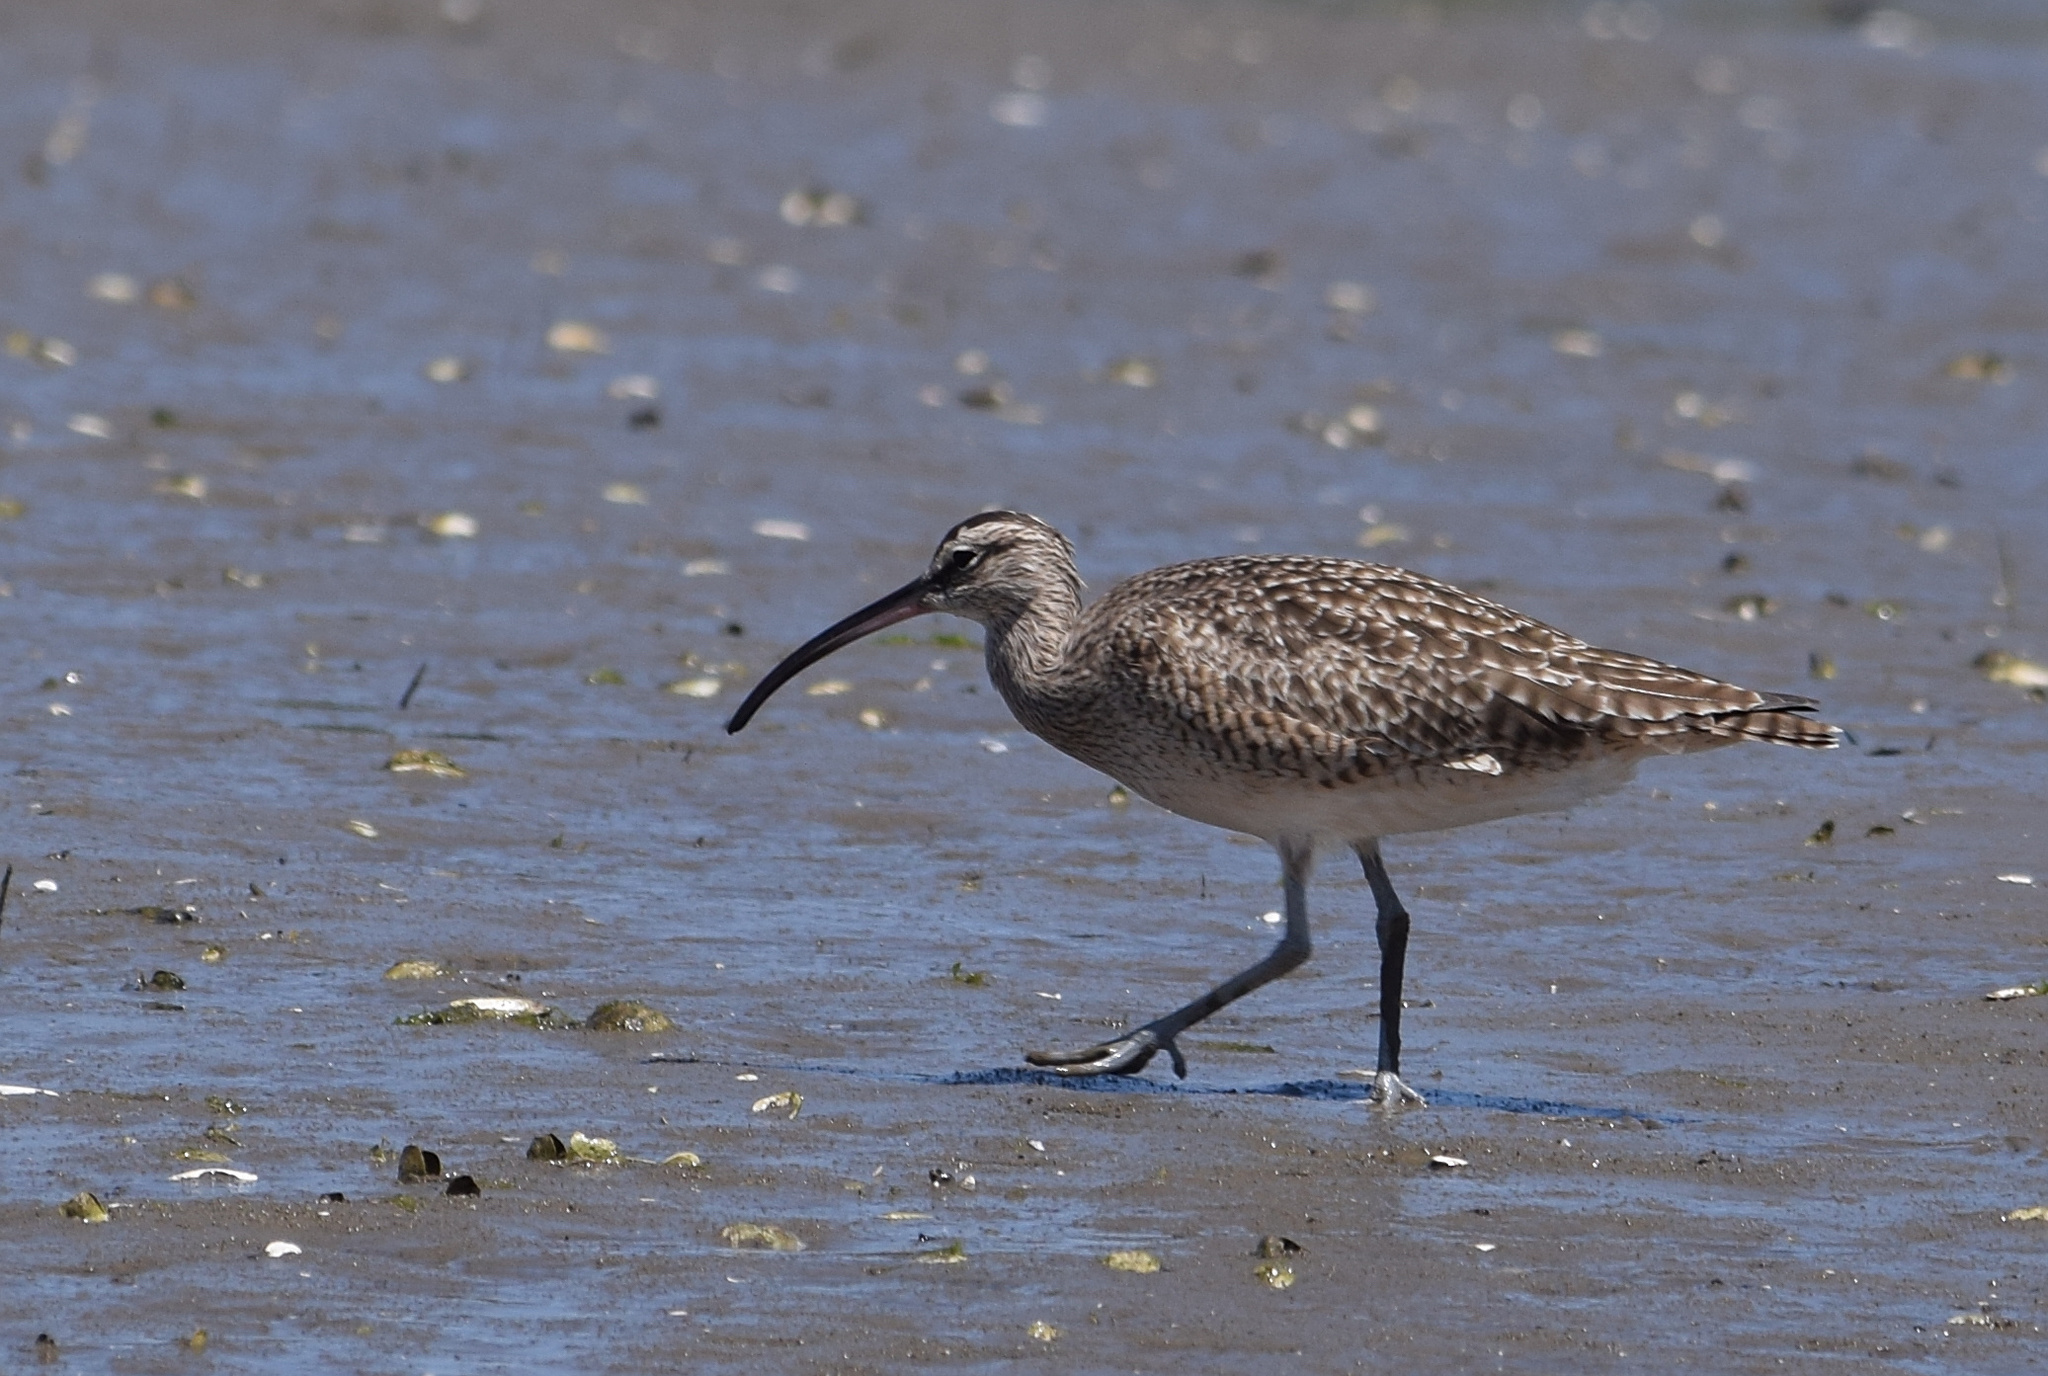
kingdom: Animalia
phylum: Chordata
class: Aves
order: Charadriiformes
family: Scolopacidae
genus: Numenius
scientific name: Numenius phaeopus
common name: Whimbrel
